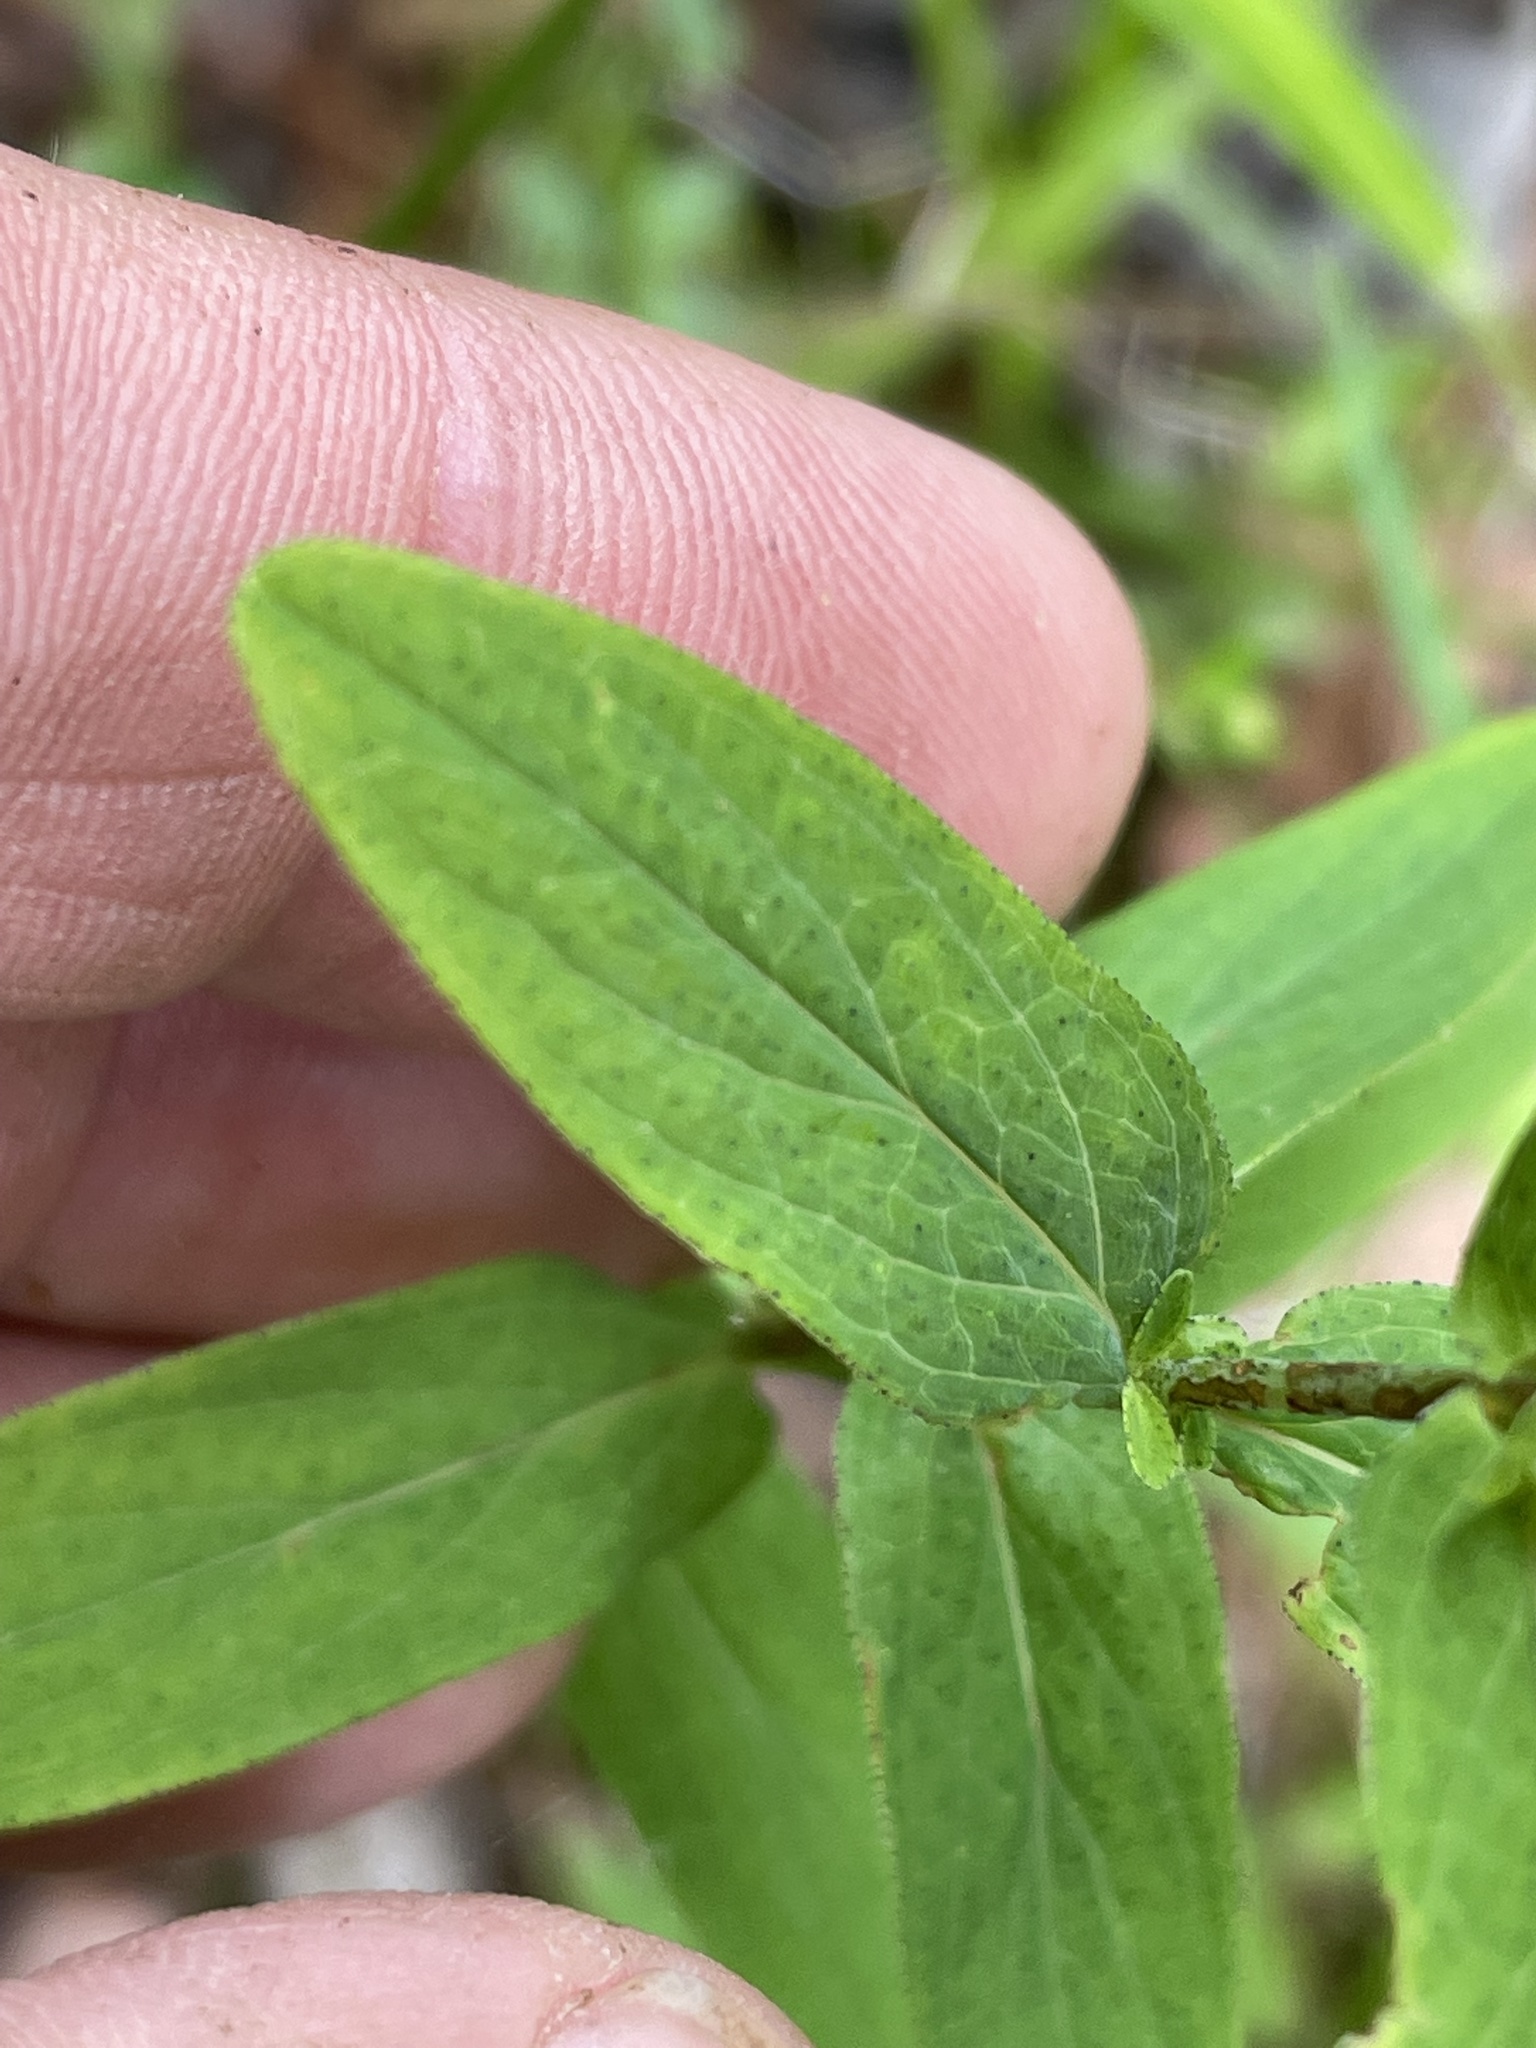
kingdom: Plantae
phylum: Tracheophyta
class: Magnoliopsida
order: Malpighiales
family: Hypericaceae
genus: Hypericum
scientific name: Hypericum punctatum
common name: Spotted st. john's-wort
